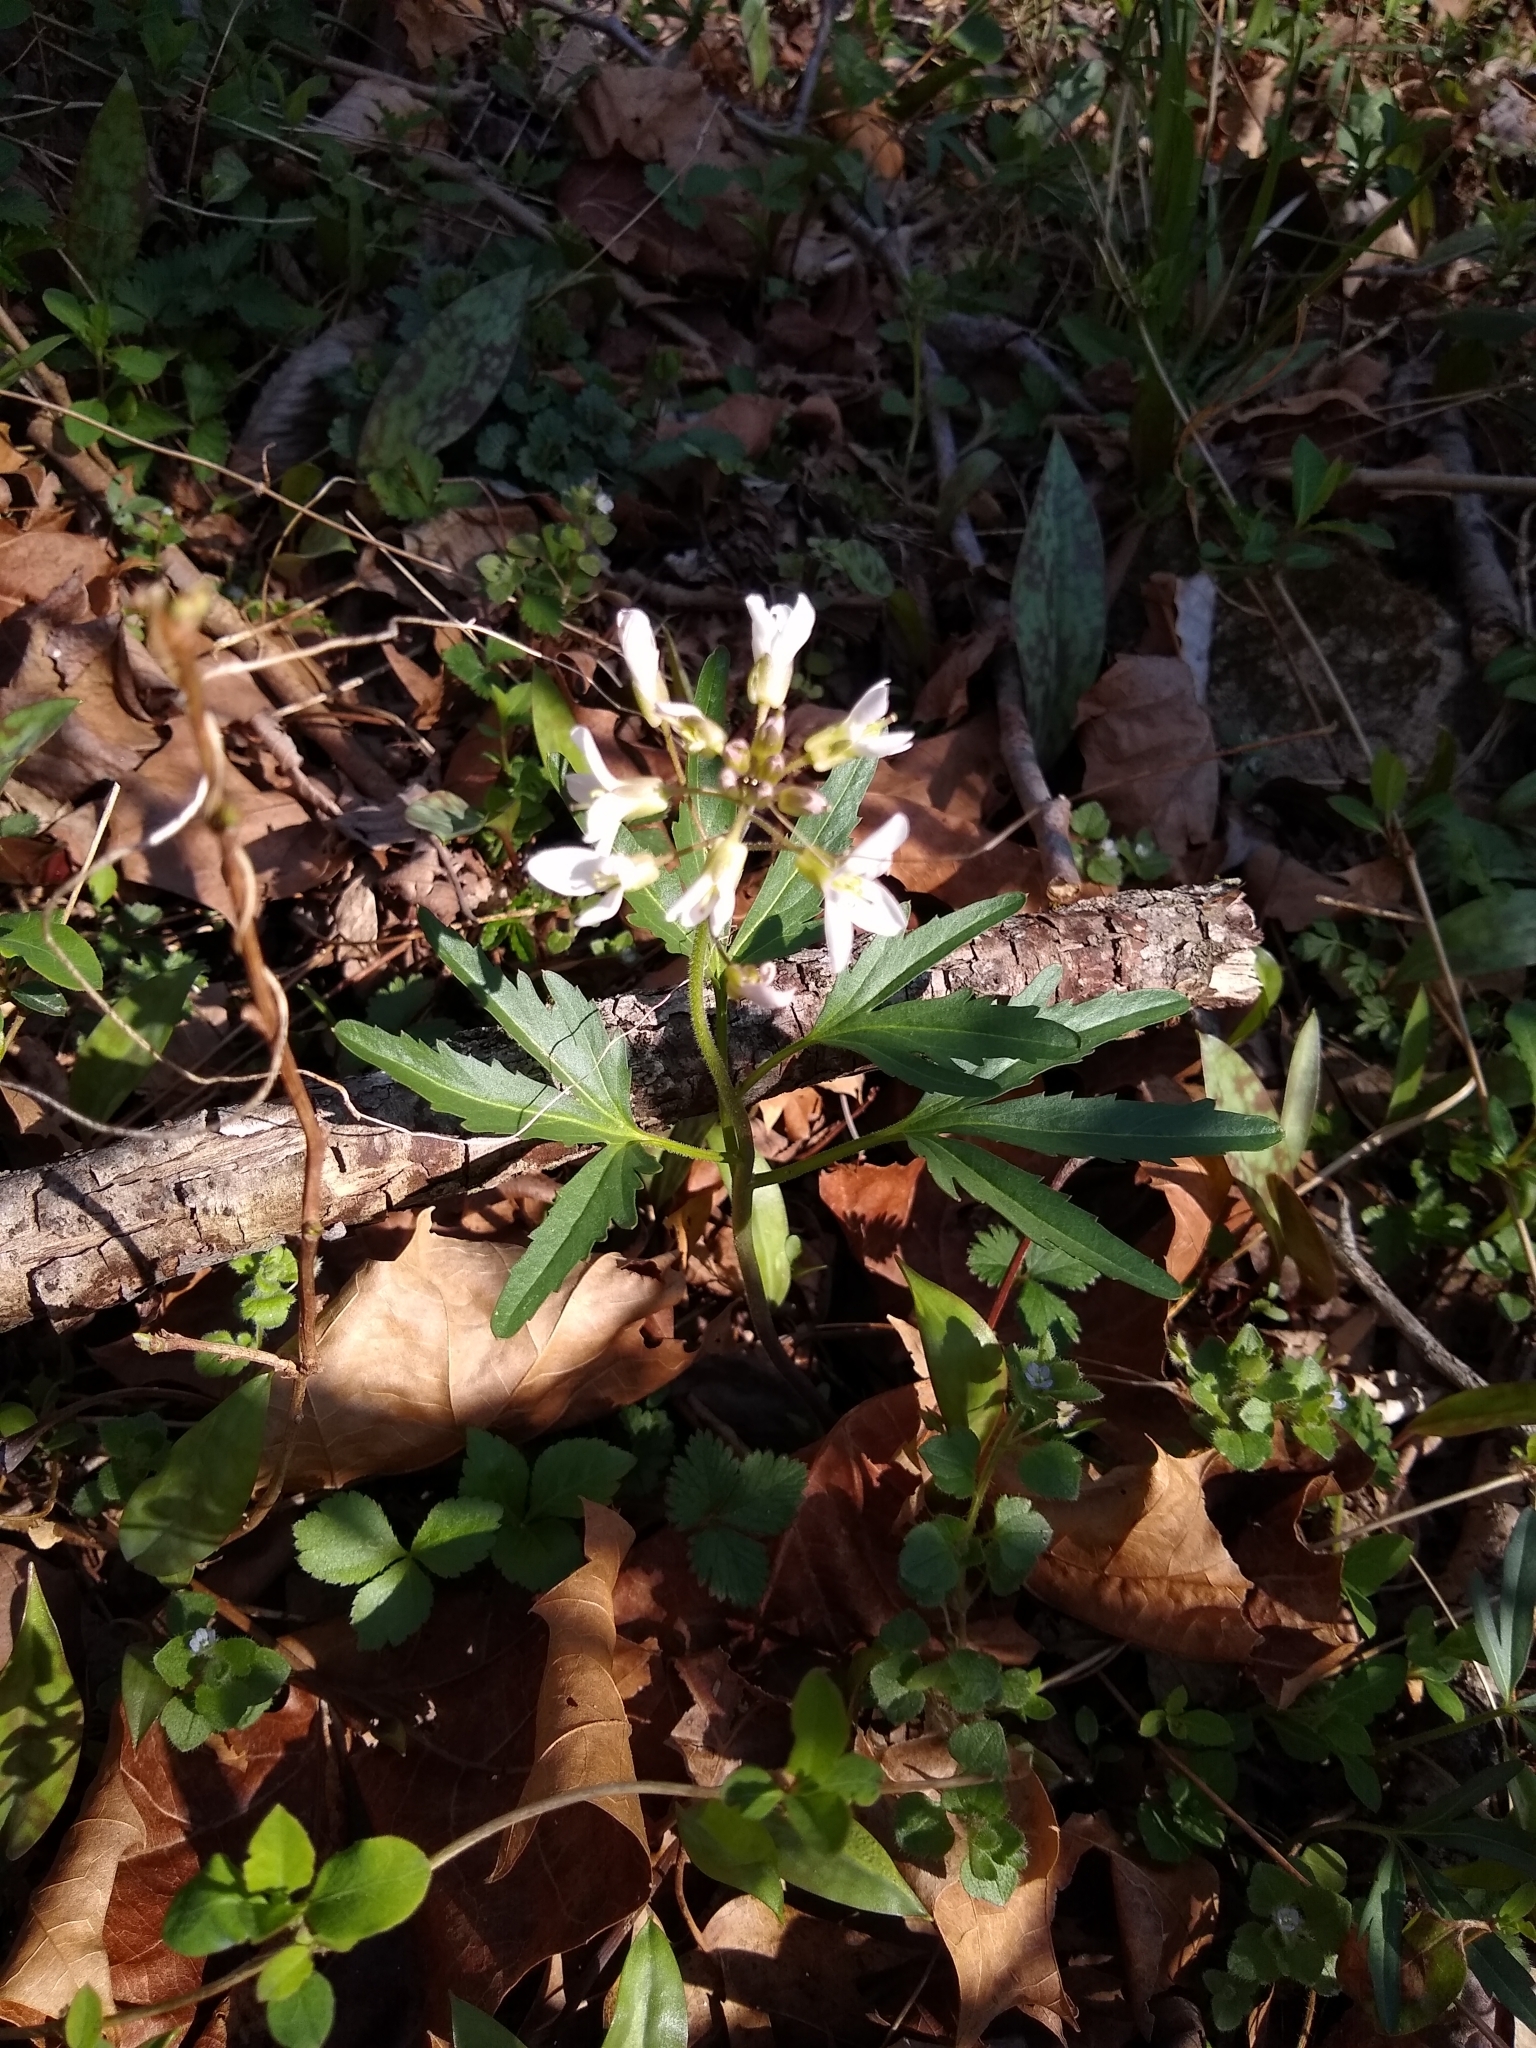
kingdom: Plantae
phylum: Tracheophyta
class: Magnoliopsida
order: Brassicales
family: Brassicaceae
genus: Cardamine
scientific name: Cardamine concatenata
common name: Cut-leaf toothcup
